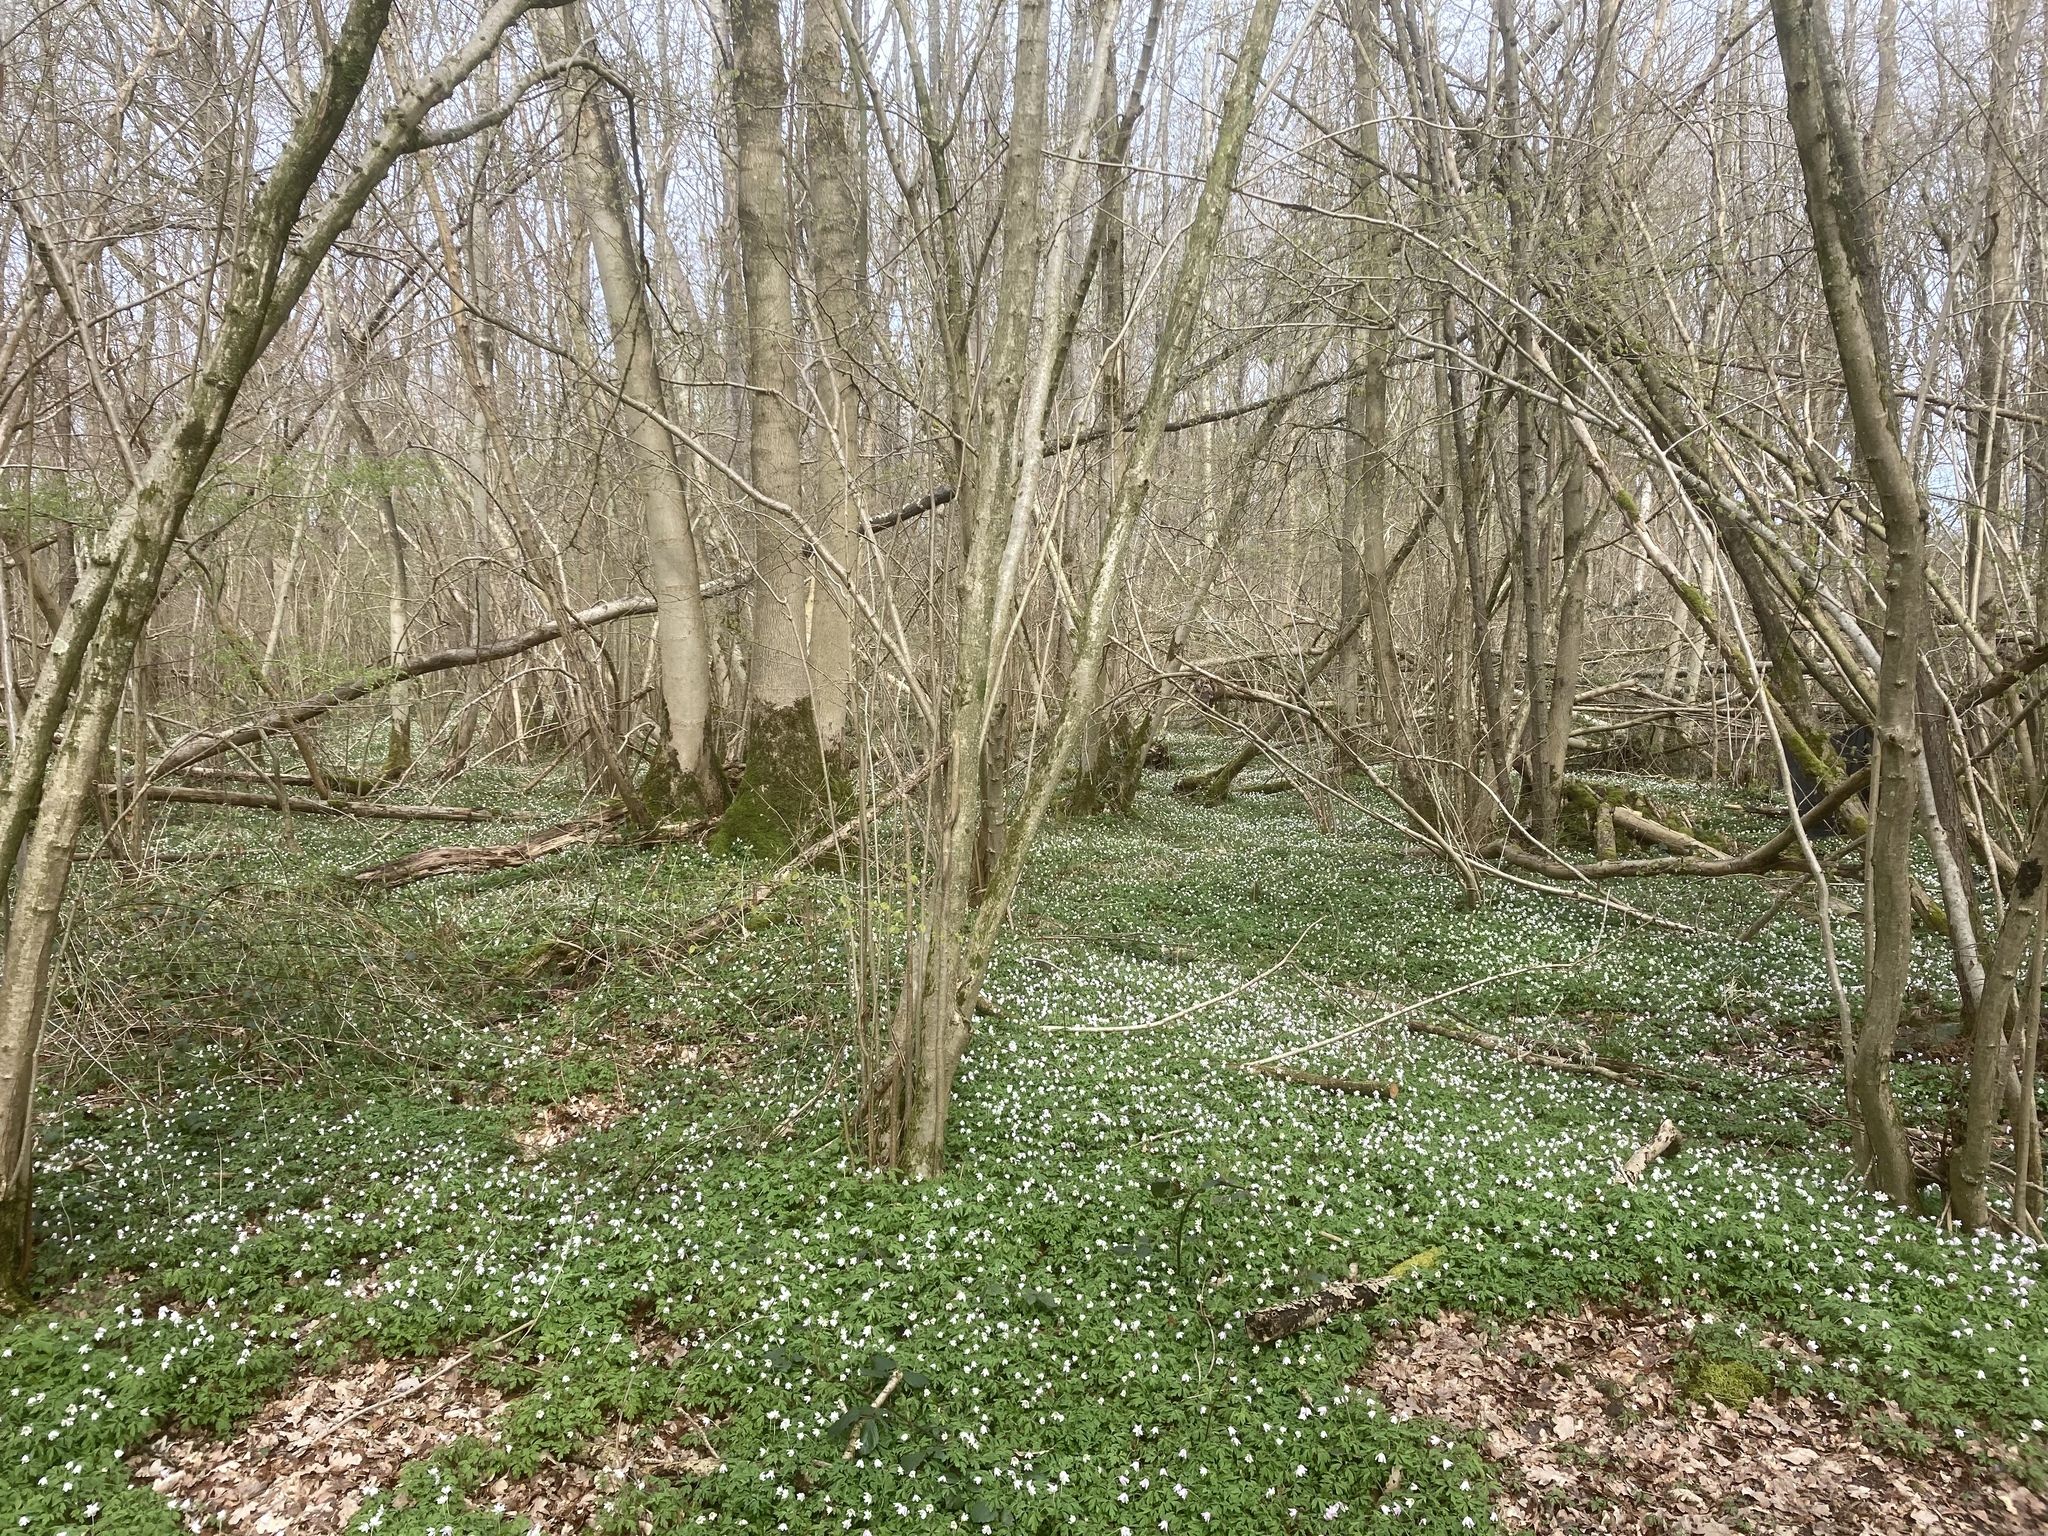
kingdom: Plantae
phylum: Tracheophyta
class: Magnoliopsida
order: Ranunculales
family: Ranunculaceae
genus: Anemone
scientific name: Anemone nemorosa
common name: Wood anemone
